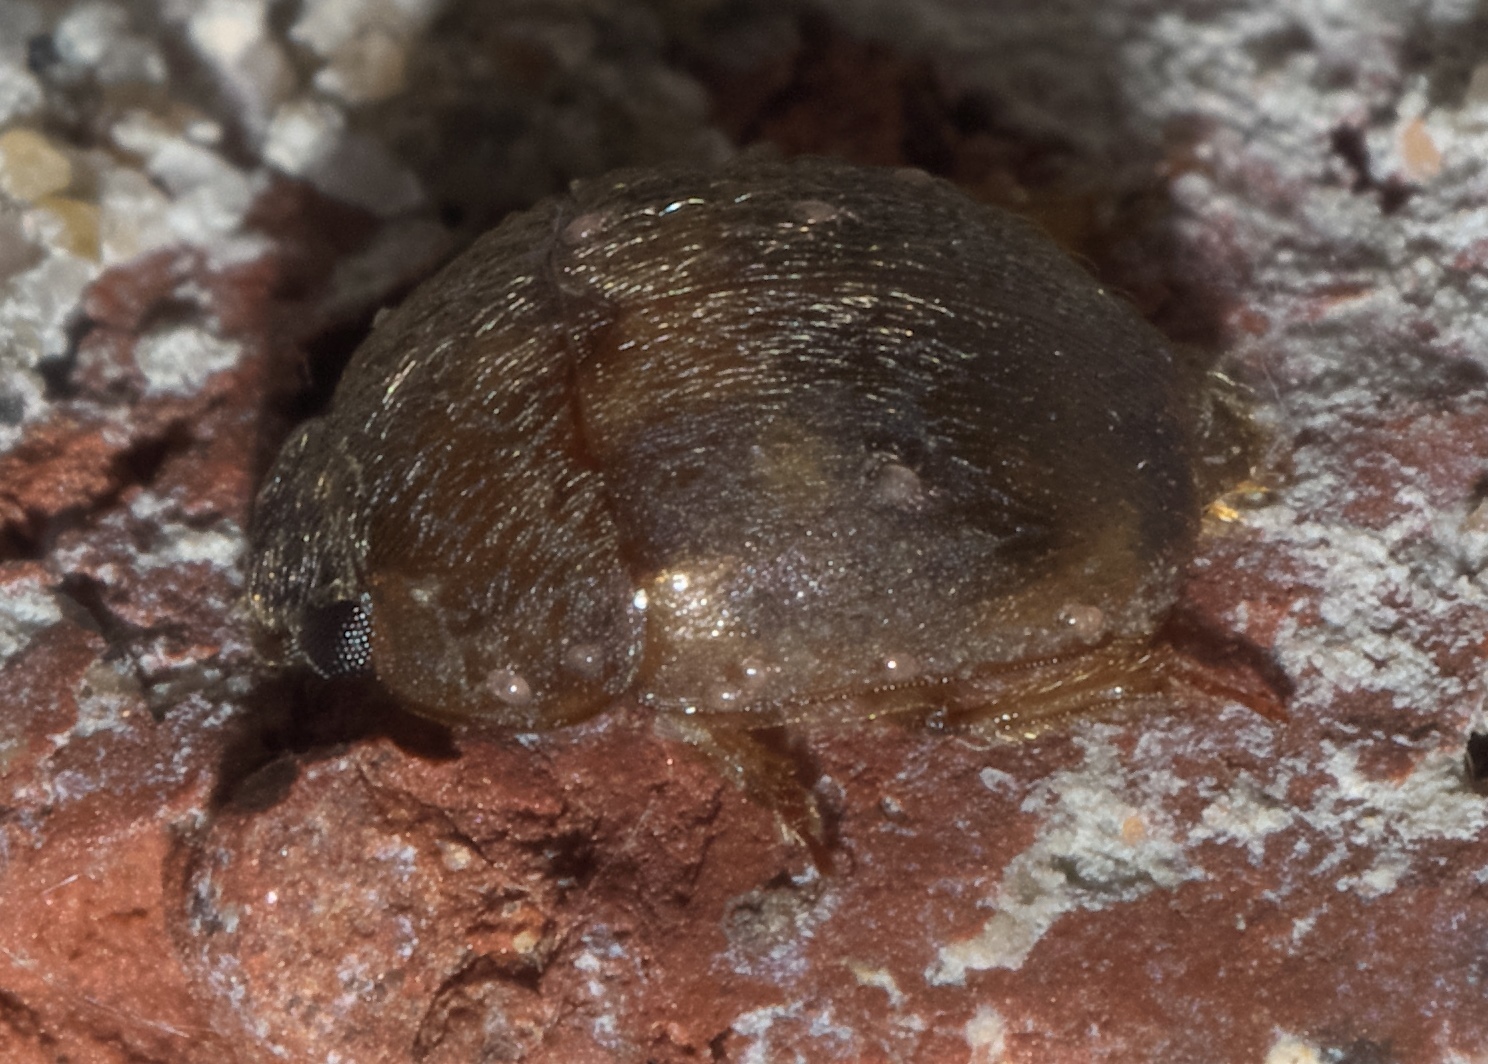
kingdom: Animalia
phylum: Arthropoda
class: Insecta
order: Coleoptera
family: Nitidulidae
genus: Amphicrossus
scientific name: Amphicrossus ciliatus
